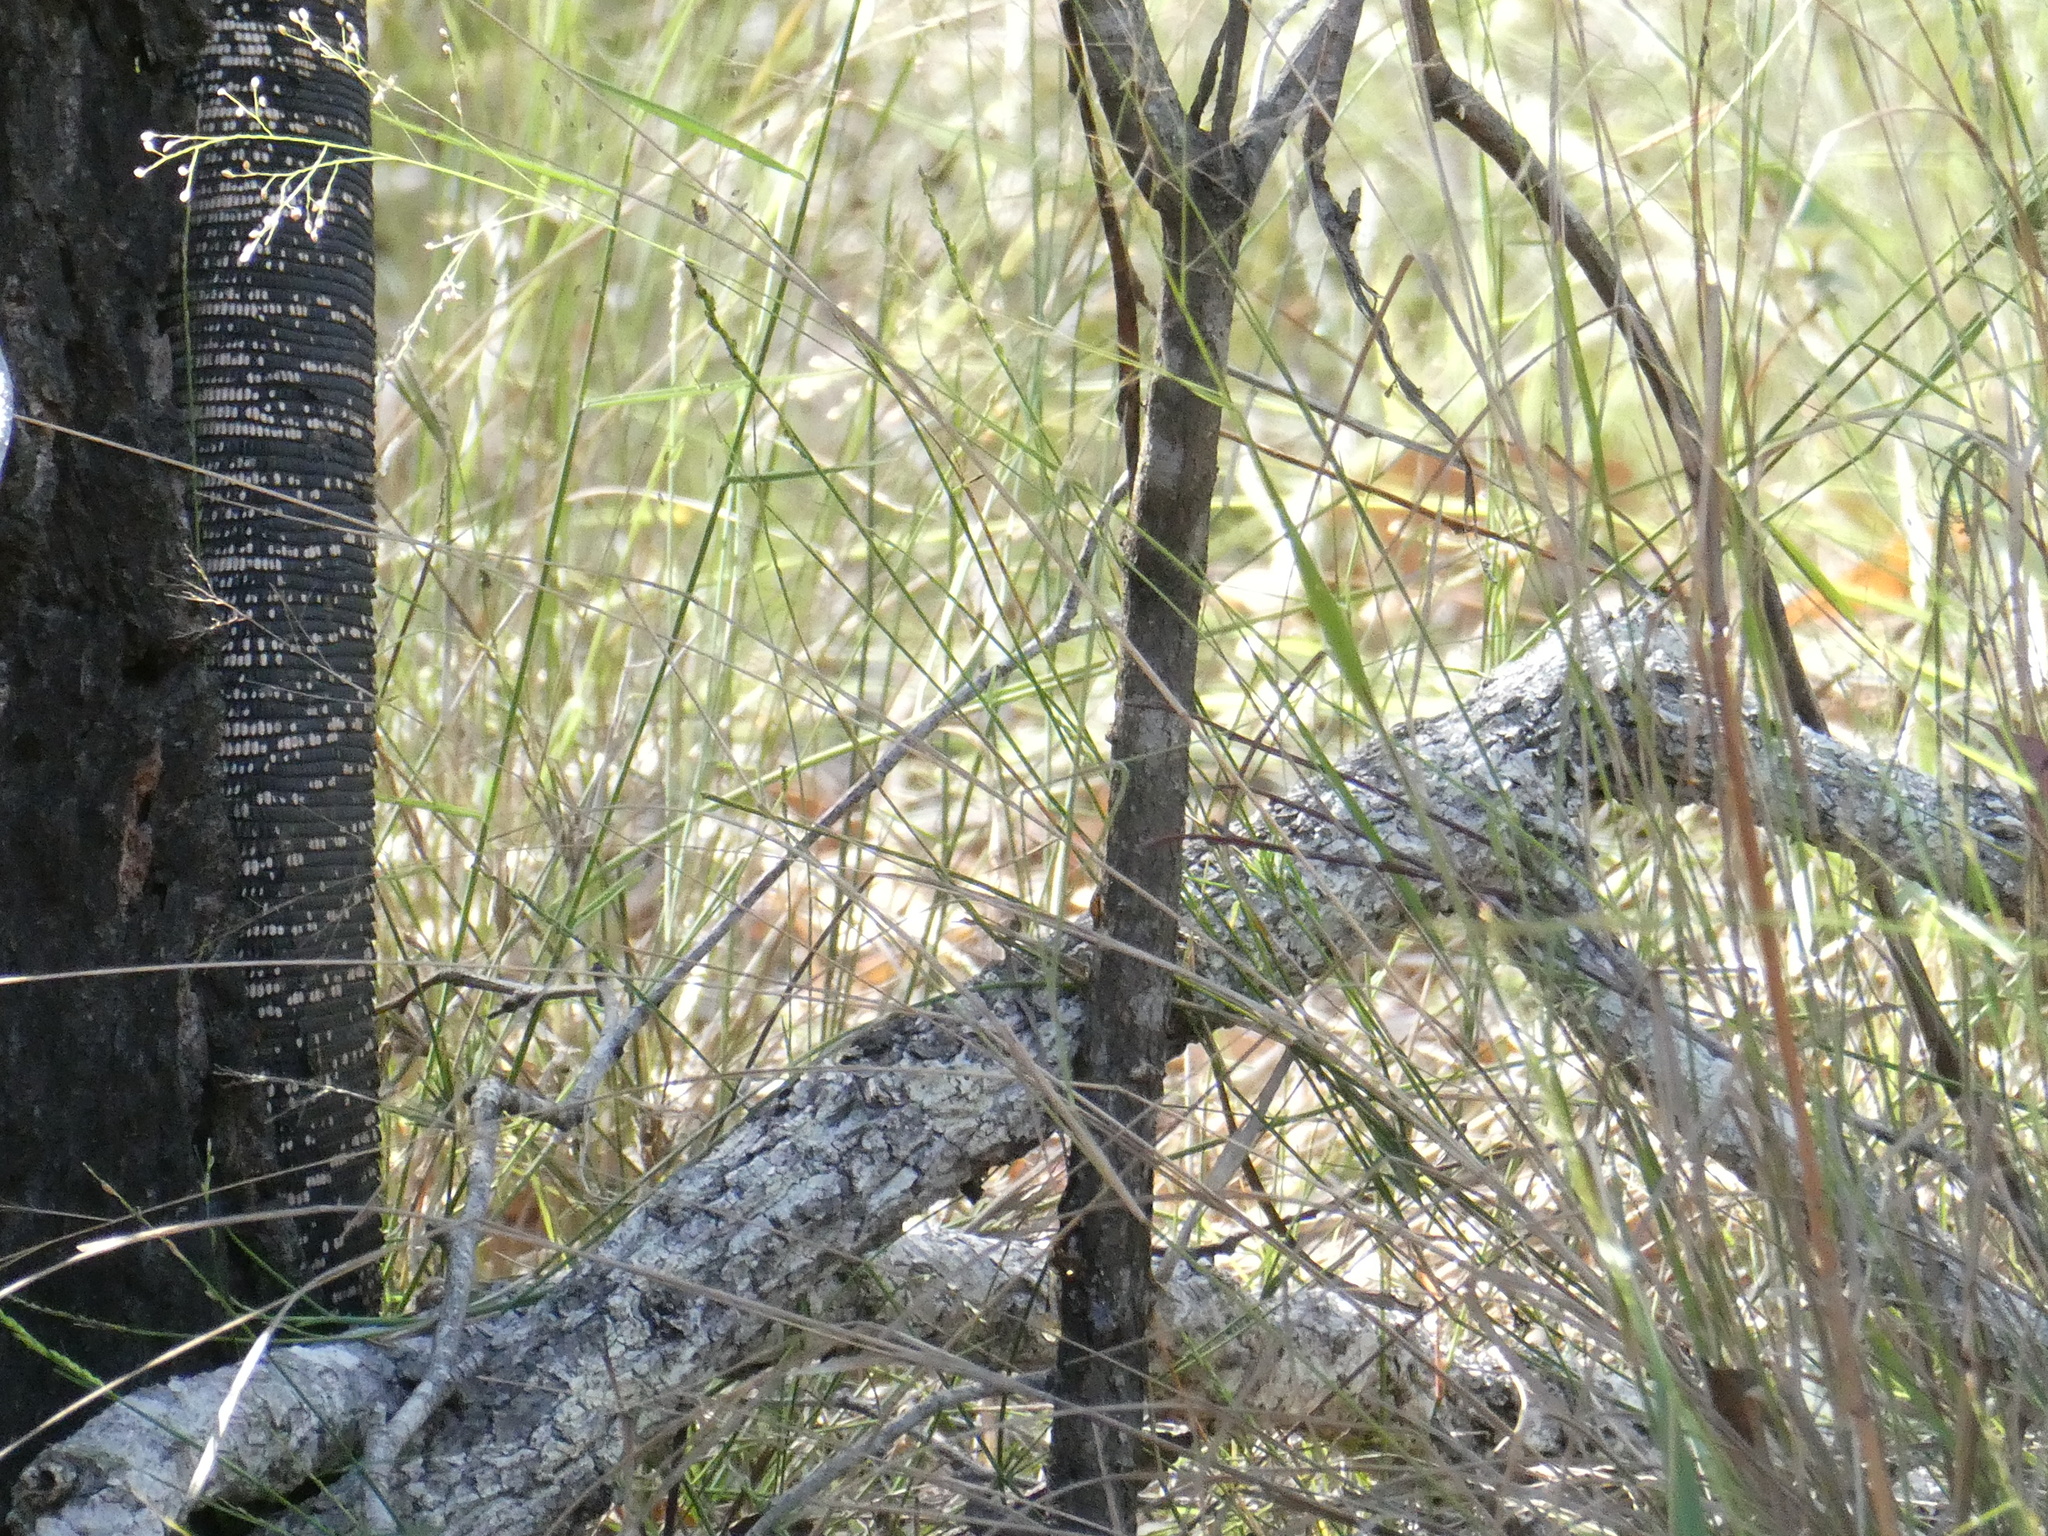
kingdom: Animalia
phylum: Chordata
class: Squamata
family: Varanidae
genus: Varanus
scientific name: Varanus varius
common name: Lace monitor
